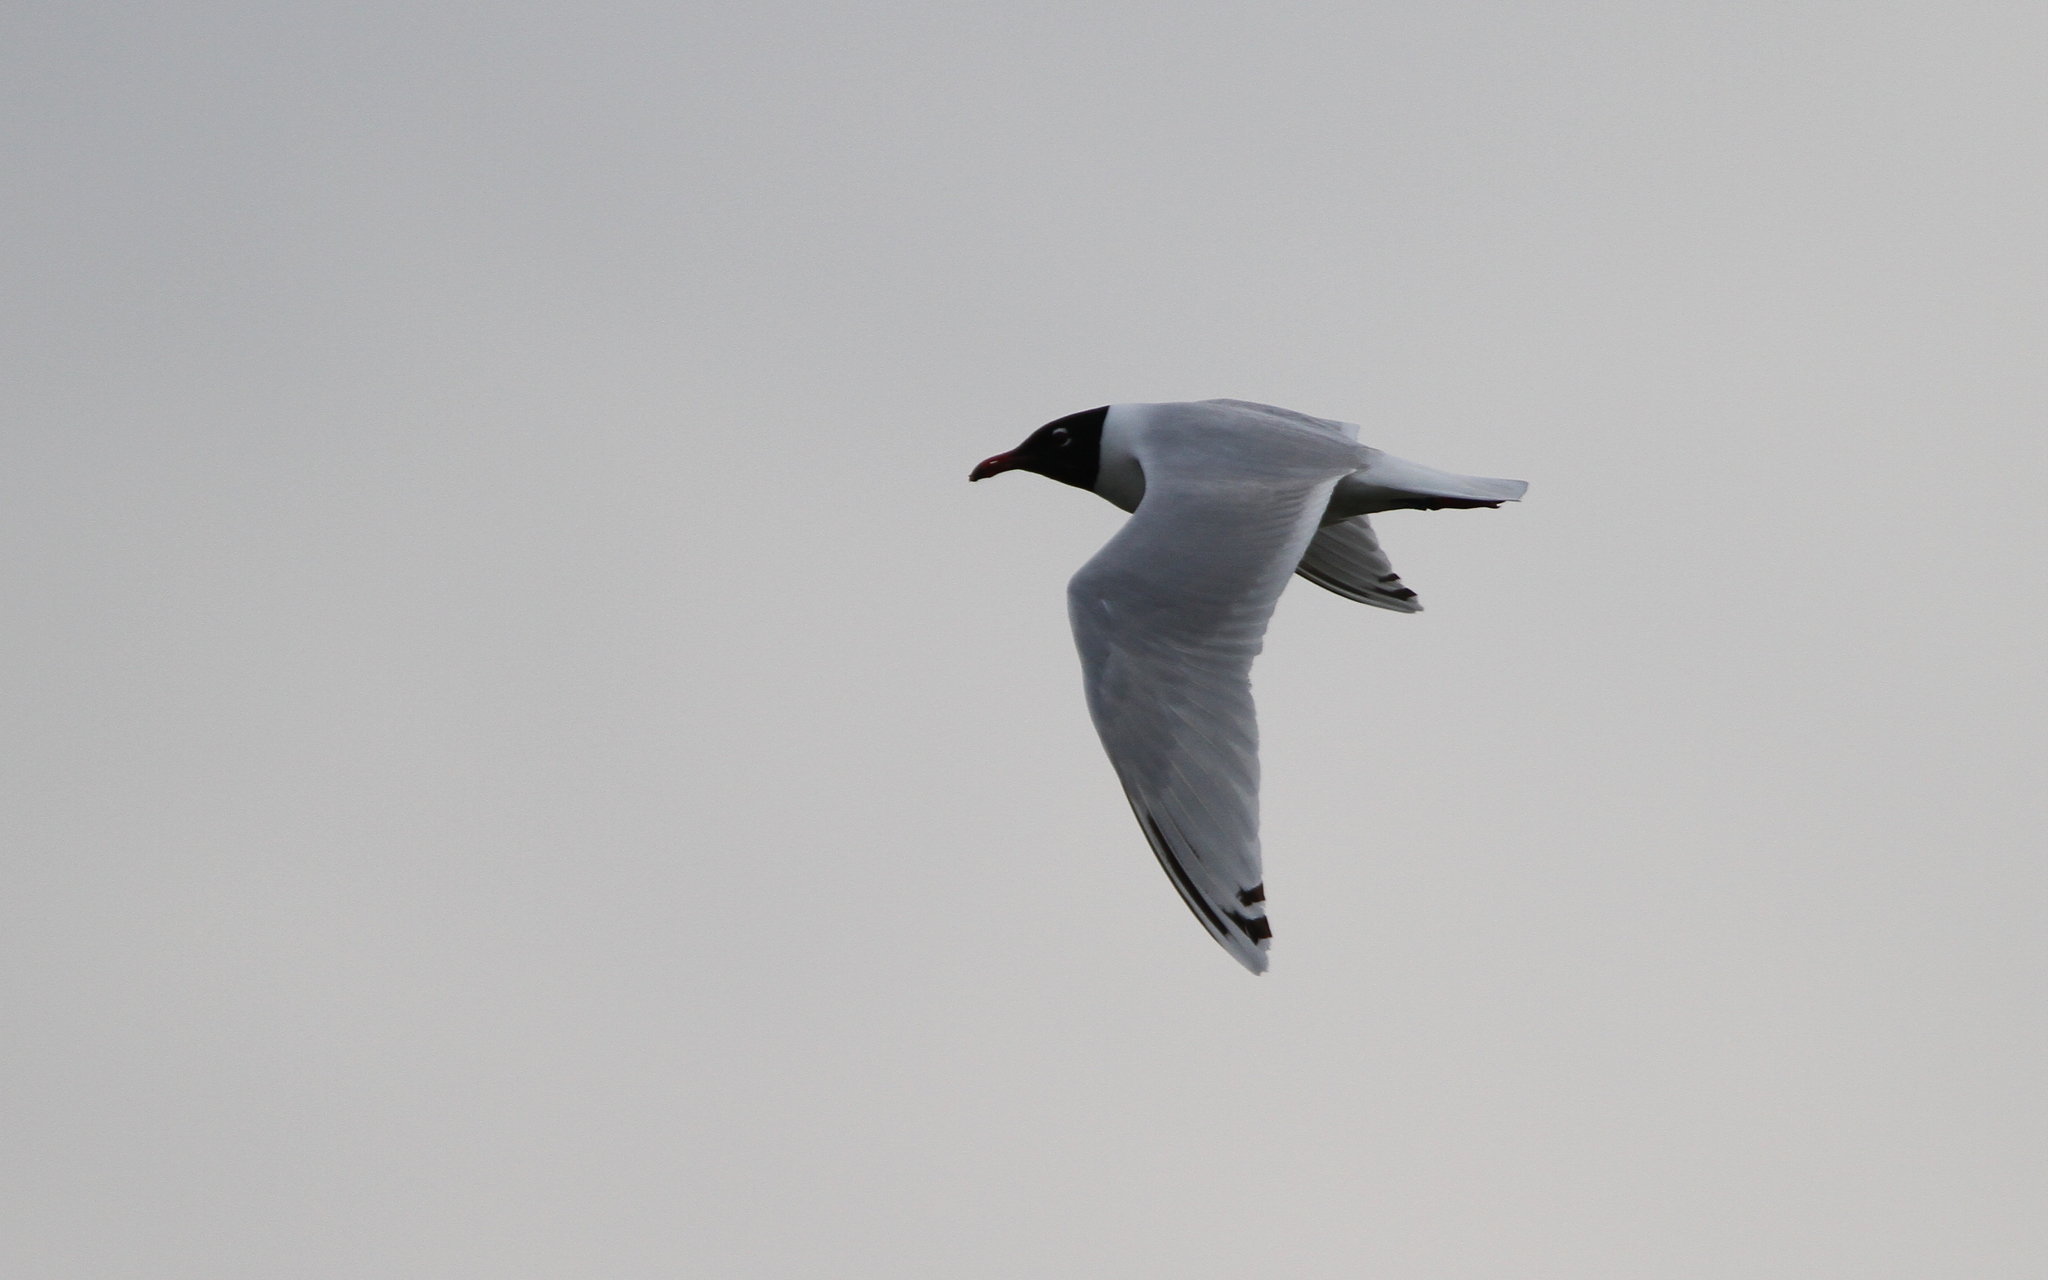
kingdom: Animalia
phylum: Chordata
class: Aves
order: Charadriiformes
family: Laridae
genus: Ichthyaetus
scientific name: Ichthyaetus melanocephalus
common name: Mediterranean gull
